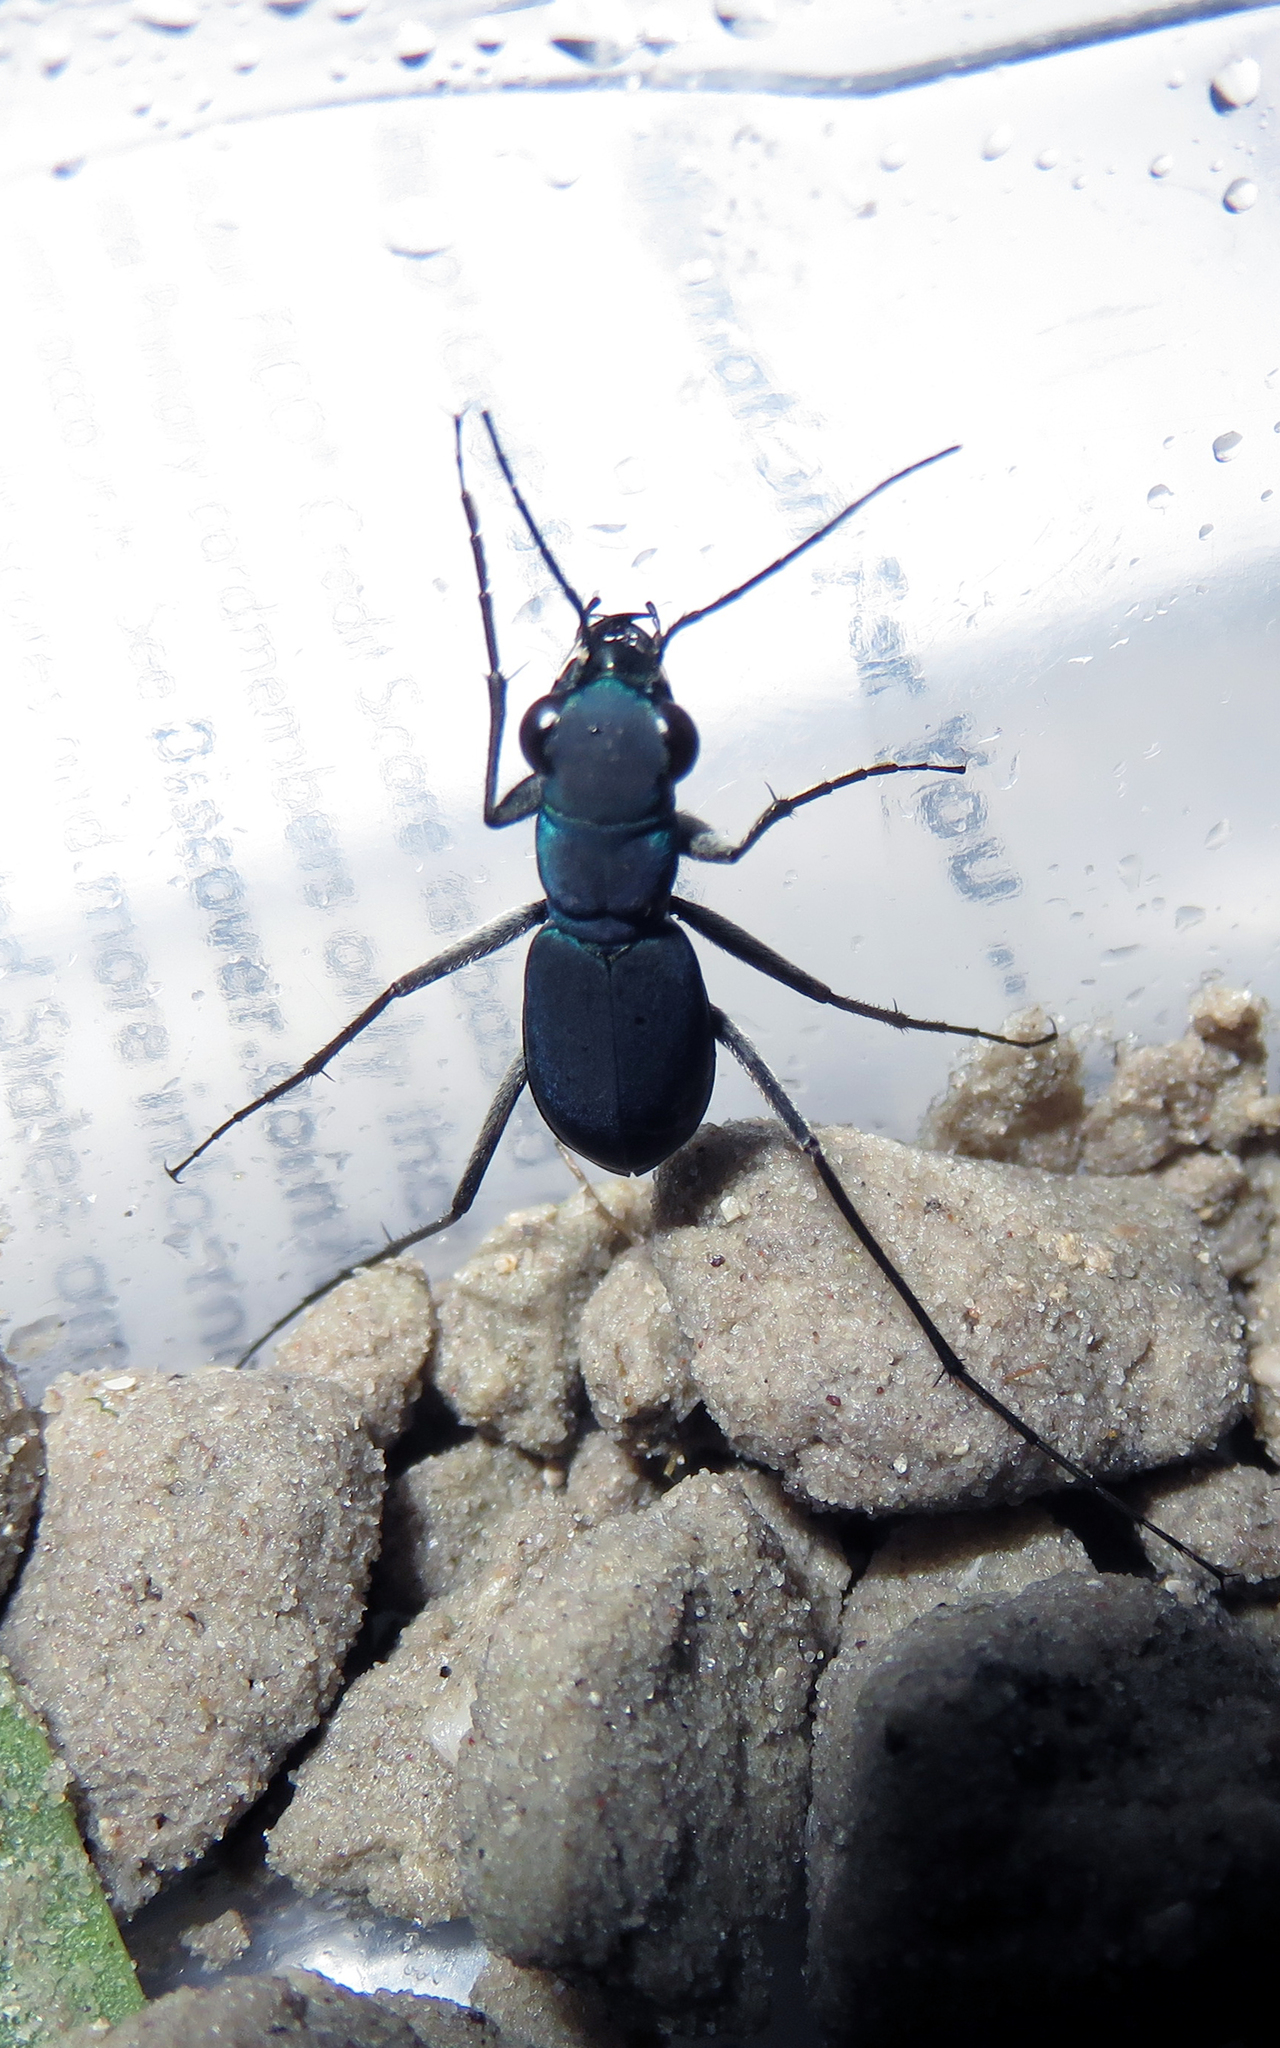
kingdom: Animalia
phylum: Arthropoda
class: Insecta
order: Coleoptera
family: Carabidae
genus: Dromochorus
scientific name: Dromochorus velutinigrens
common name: Velvet dromo tiger beetle
